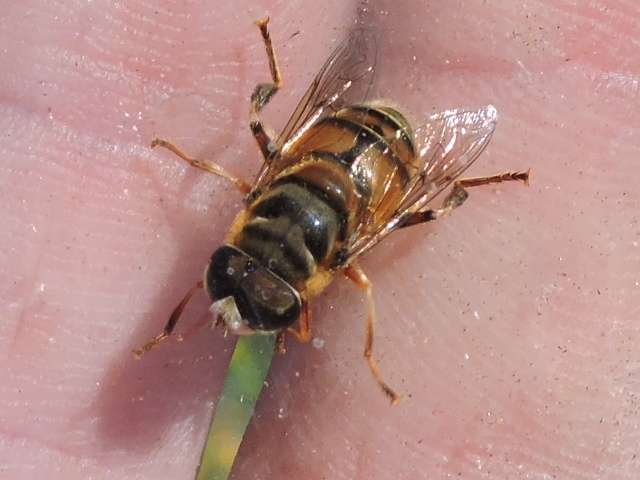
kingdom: Animalia
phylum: Arthropoda
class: Insecta
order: Diptera
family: Syrphidae
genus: Palpada
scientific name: Palpada vinetorum
